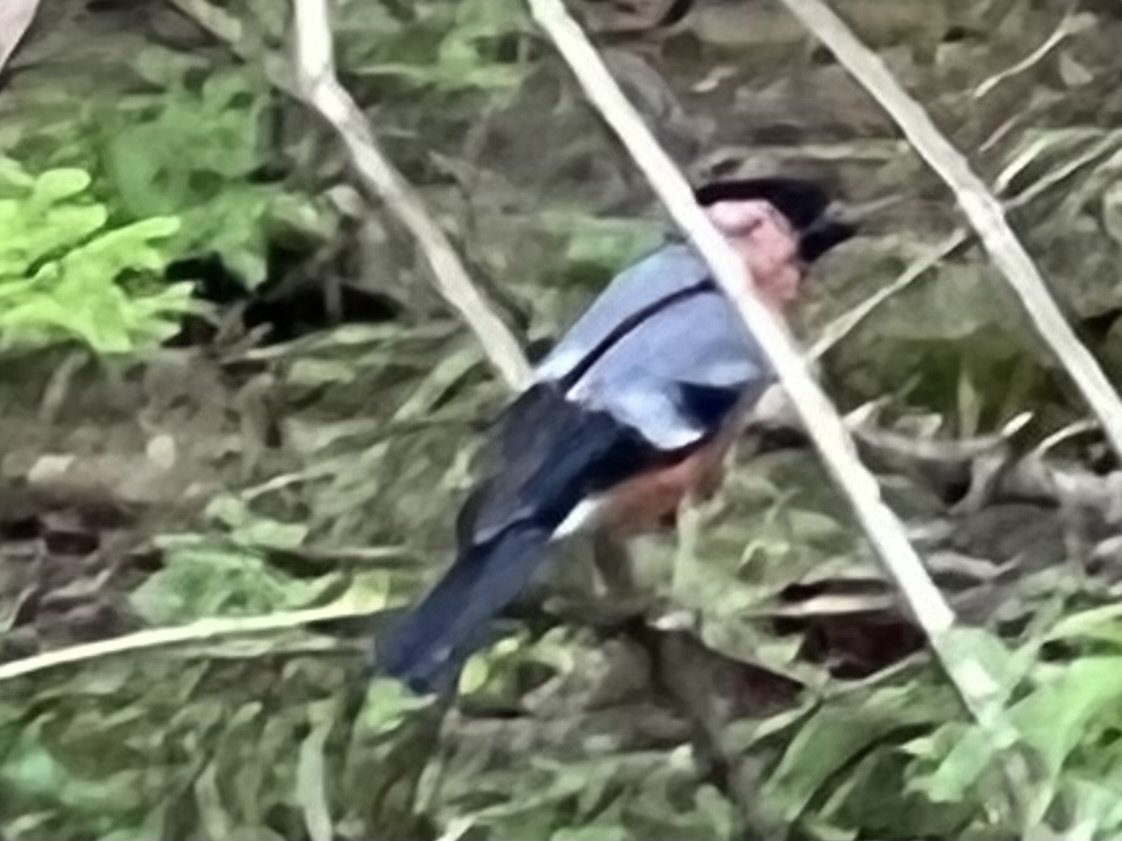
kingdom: Animalia
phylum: Chordata
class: Aves
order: Passeriformes
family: Fringillidae
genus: Pyrrhula
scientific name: Pyrrhula pyrrhula
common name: Eurasian bullfinch
